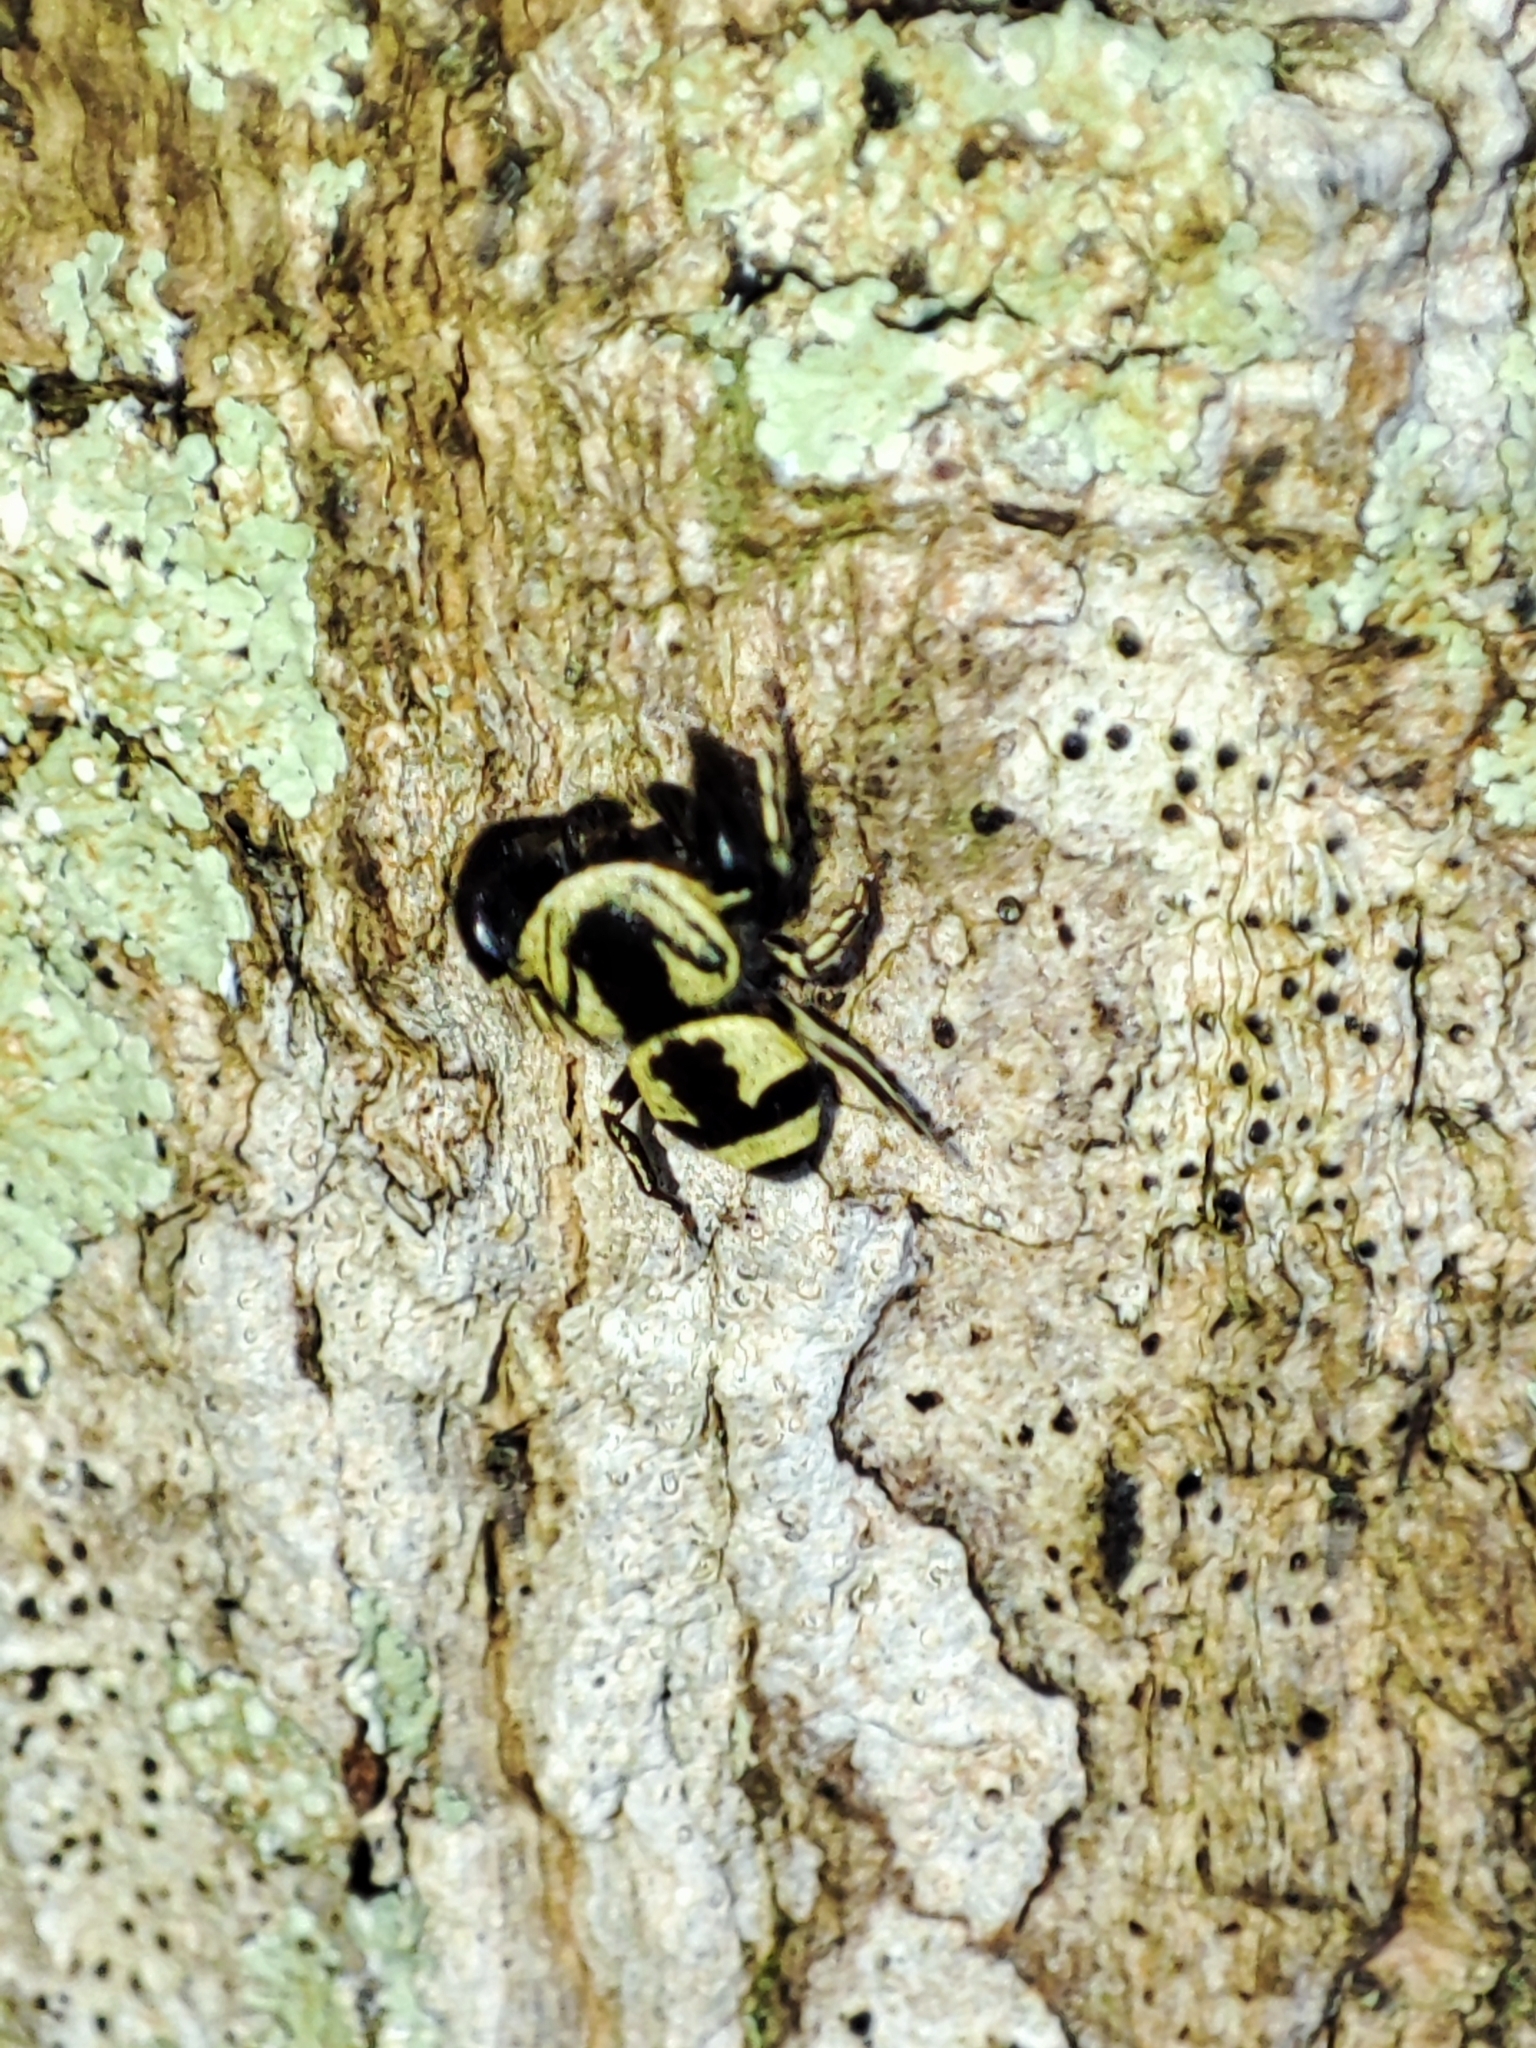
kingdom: Animalia
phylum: Arthropoda
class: Arachnida
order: Araneae
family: Salticidae
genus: Rhene
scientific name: Rhene flavicomans
